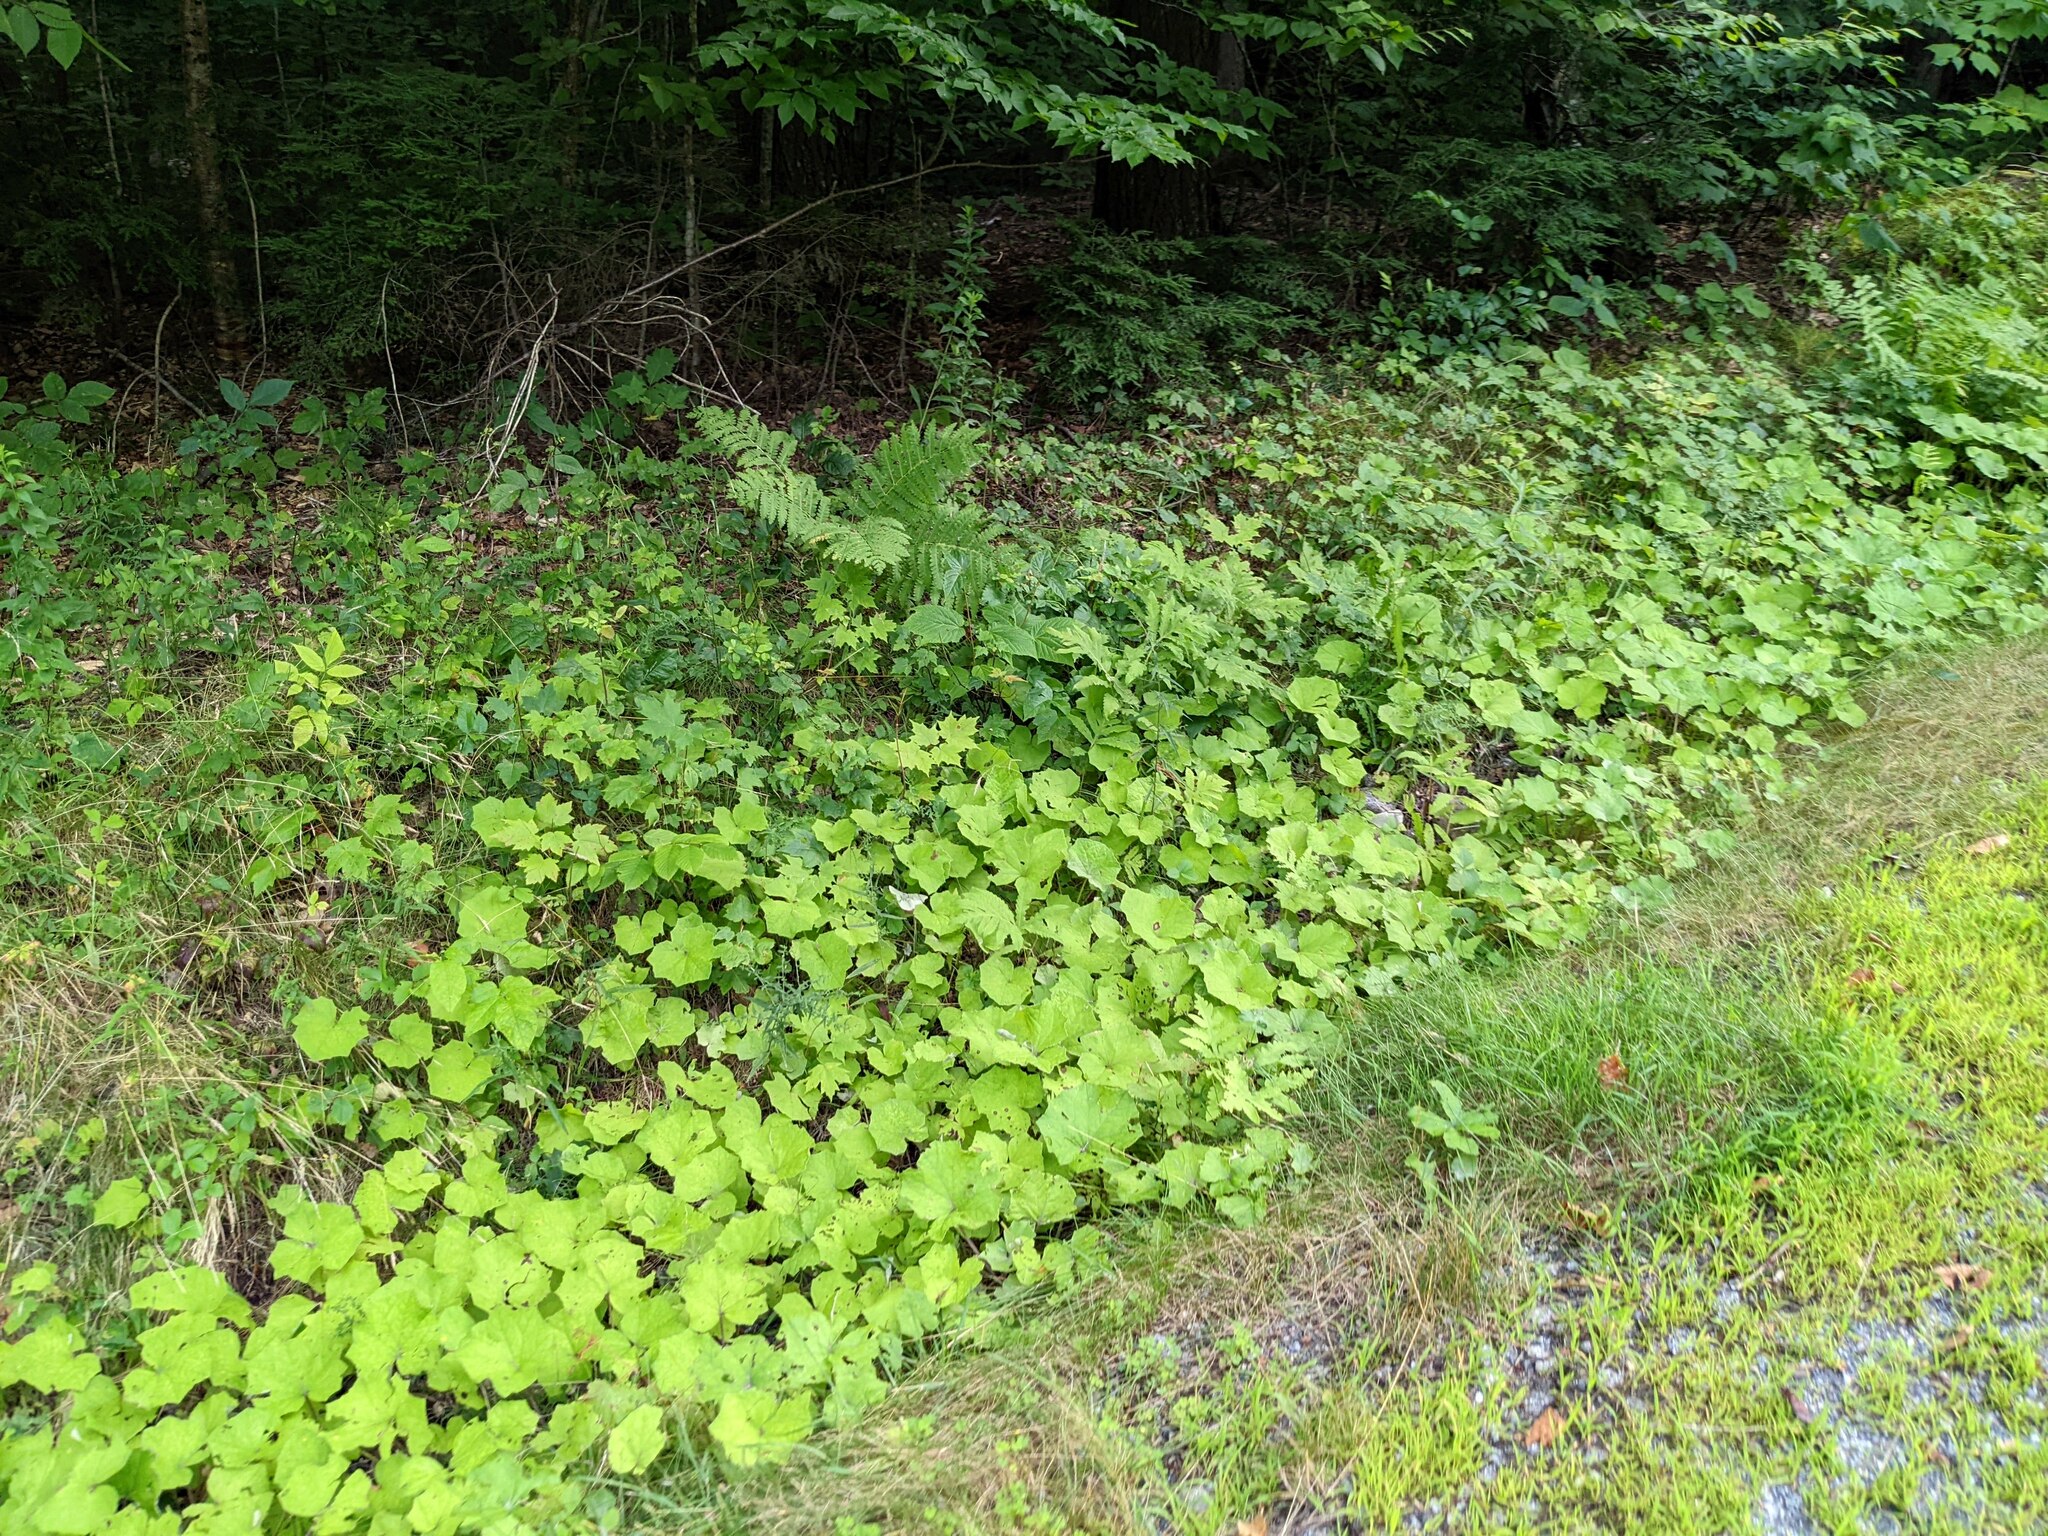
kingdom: Plantae
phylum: Tracheophyta
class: Magnoliopsida
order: Asterales
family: Asteraceae
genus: Tussilago
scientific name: Tussilago farfara
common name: Coltsfoot
